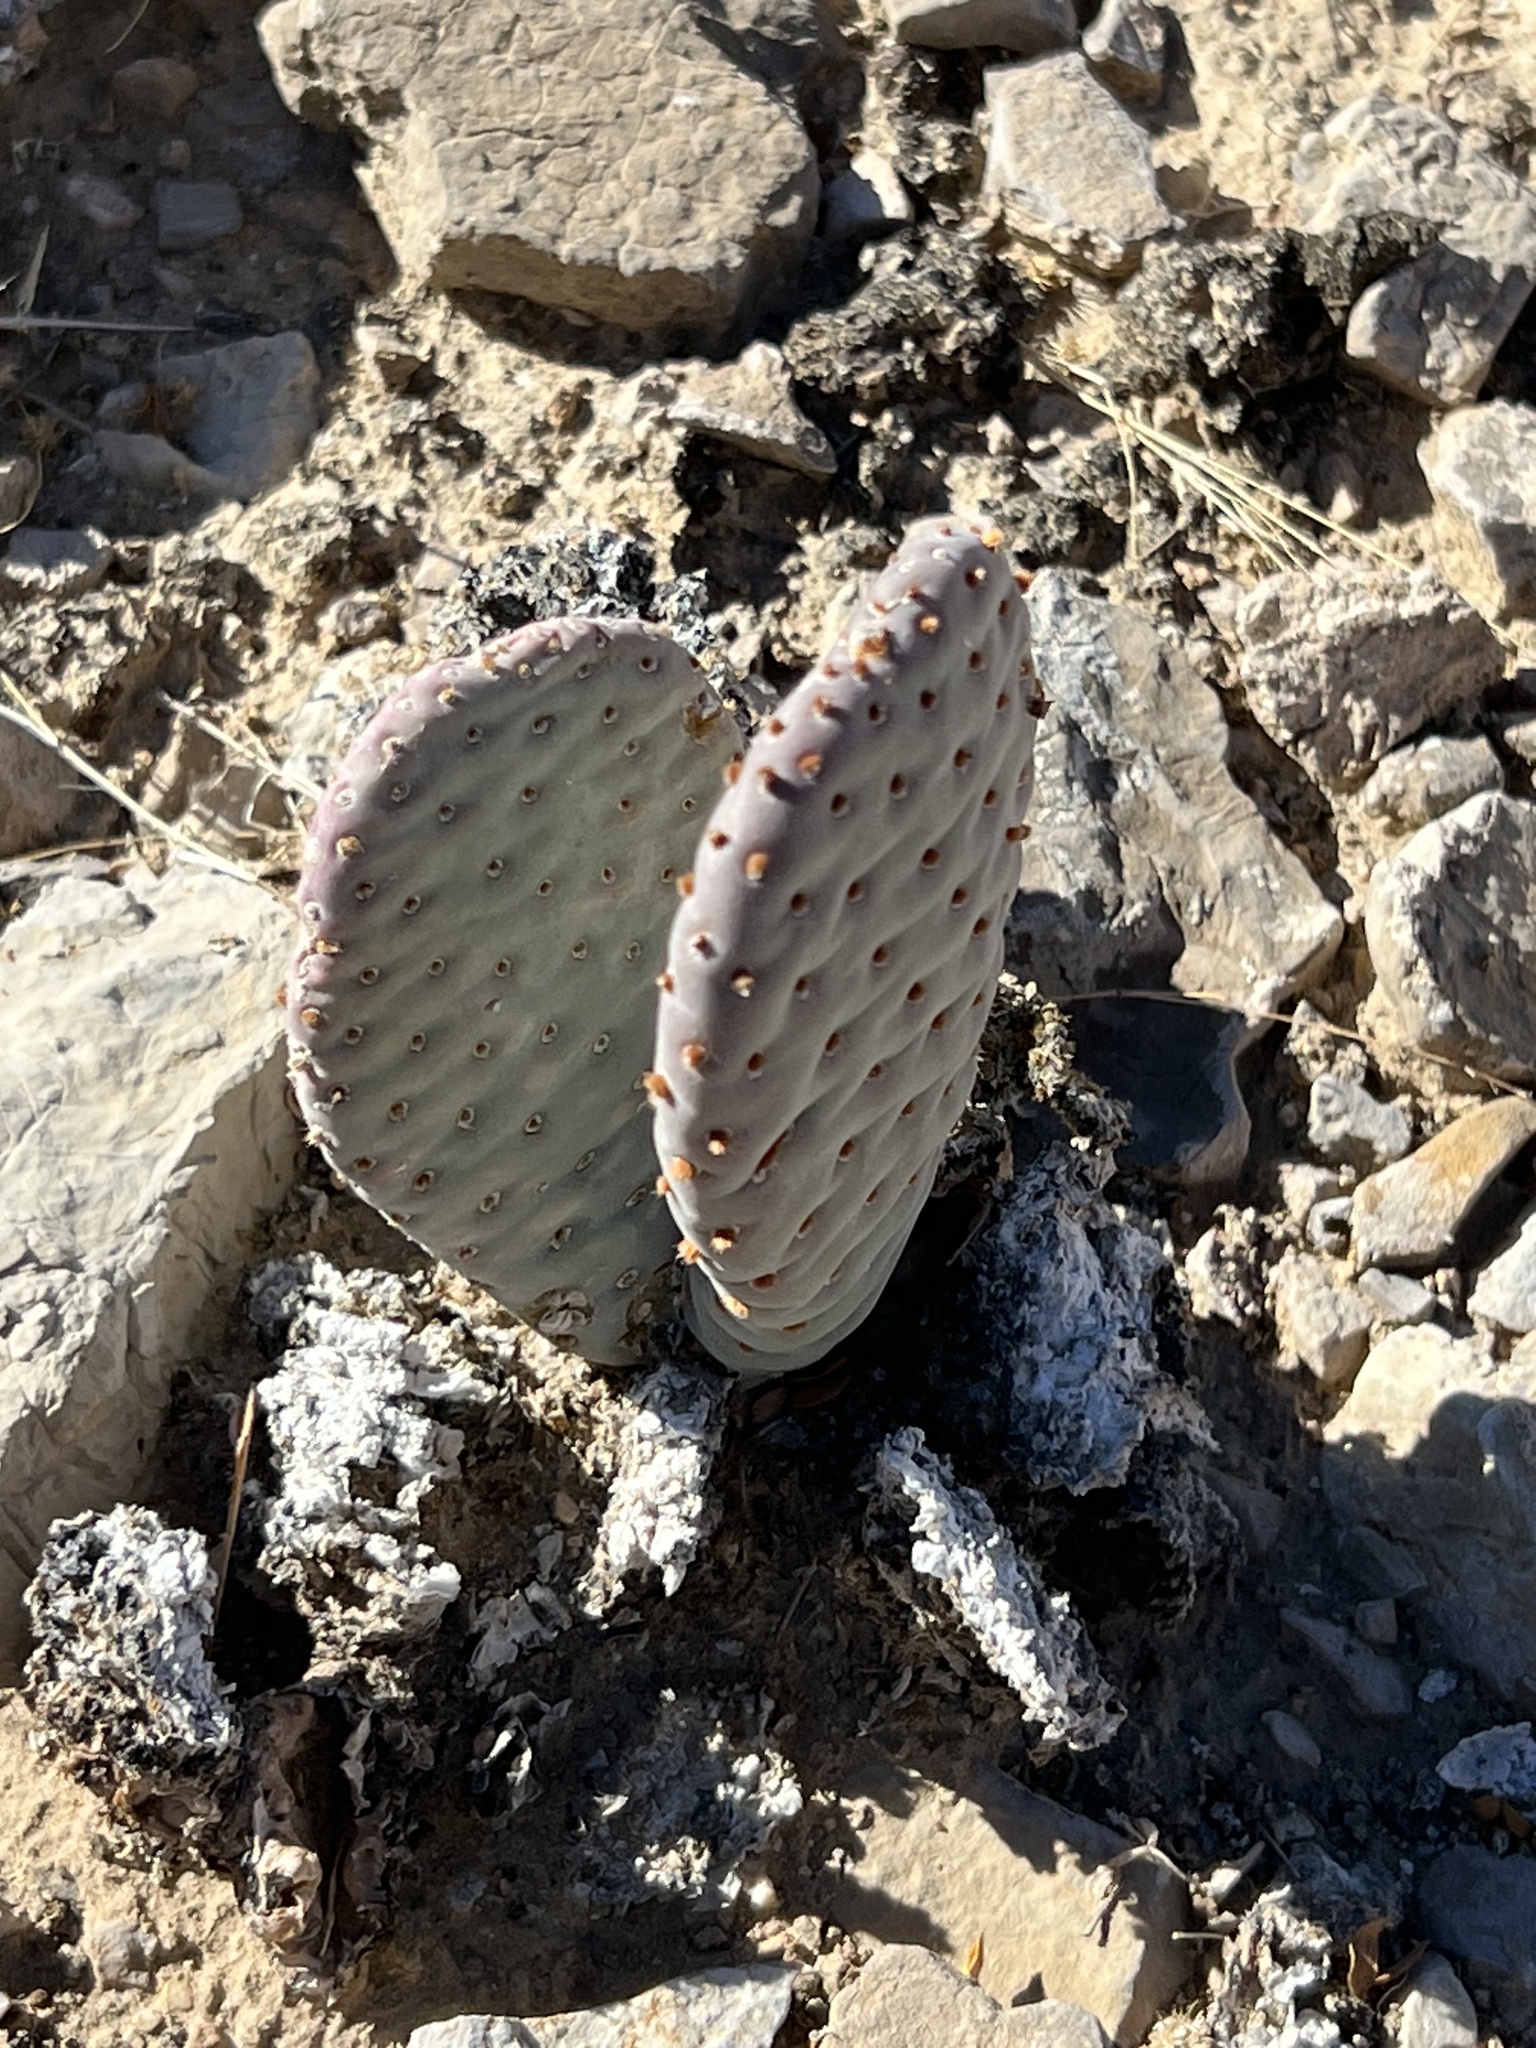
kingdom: Plantae
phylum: Tracheophyta
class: Magnoliopsida
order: Caryophyllales
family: Cactaceae
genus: Opuntia
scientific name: Opuntia basilaris
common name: Beavertail prickly-pear
